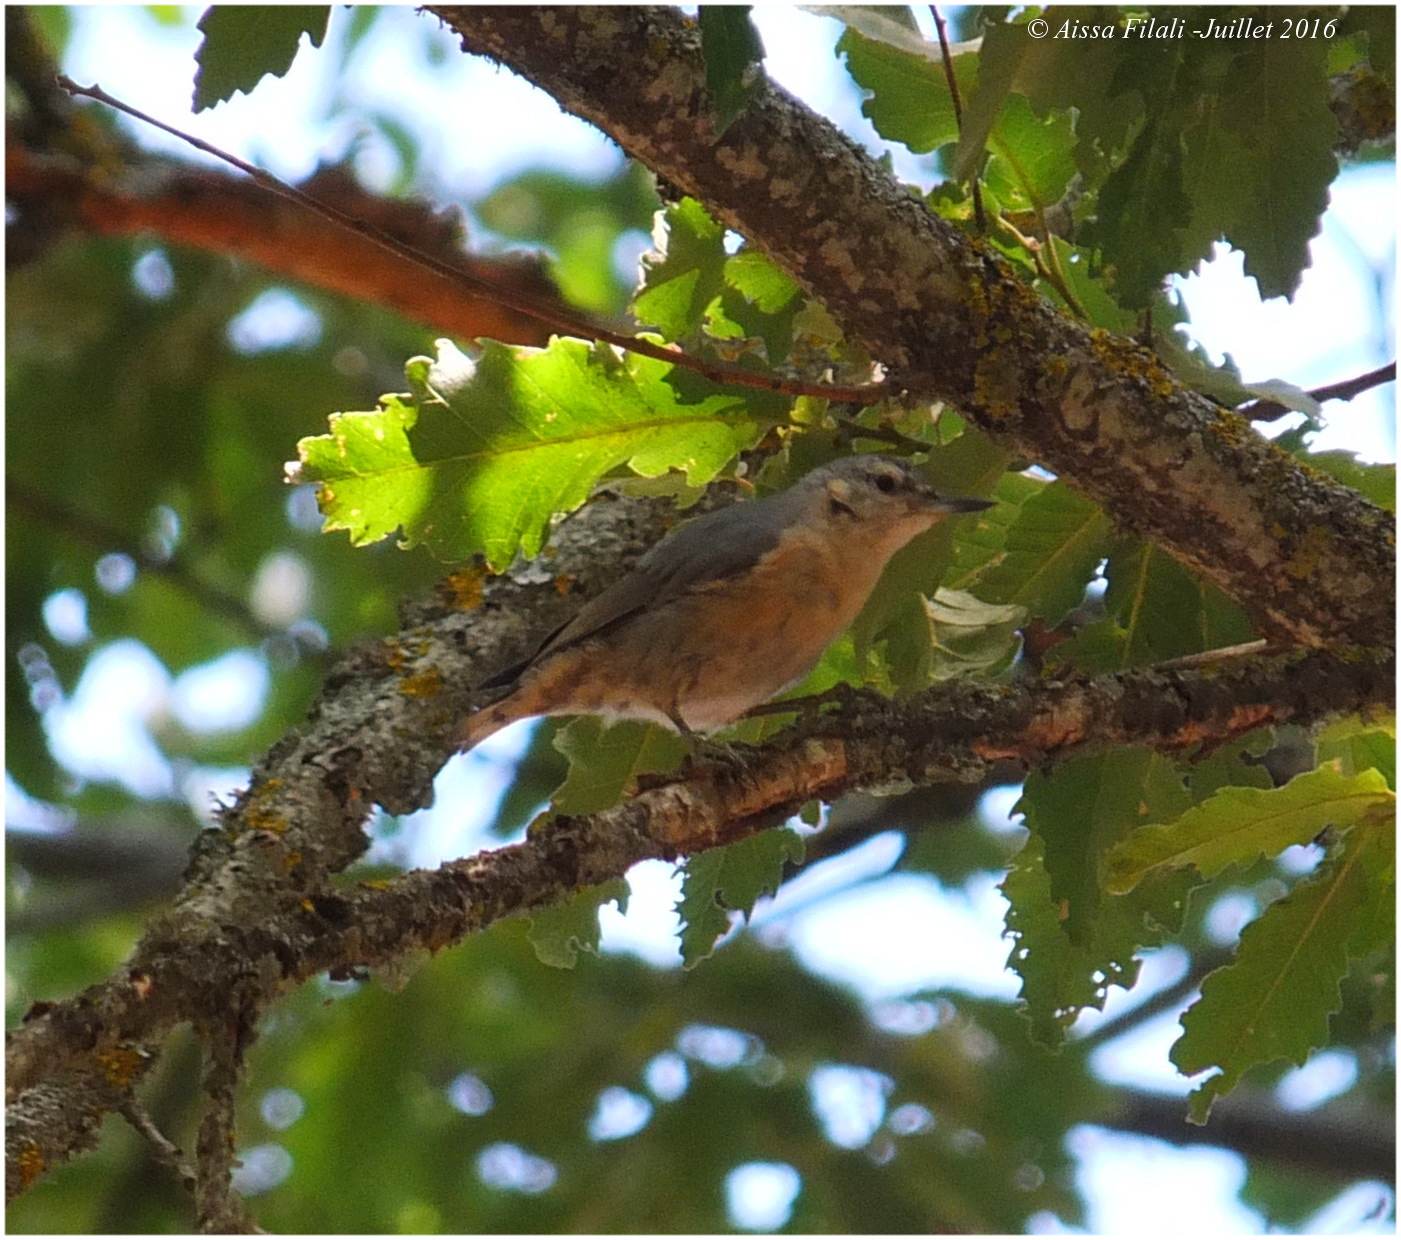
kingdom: Animalia
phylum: Chordata
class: Aves
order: Passeriformes
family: Sittidae
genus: Sitta
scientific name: Sitta ledanti
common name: Algerian nuthatch
